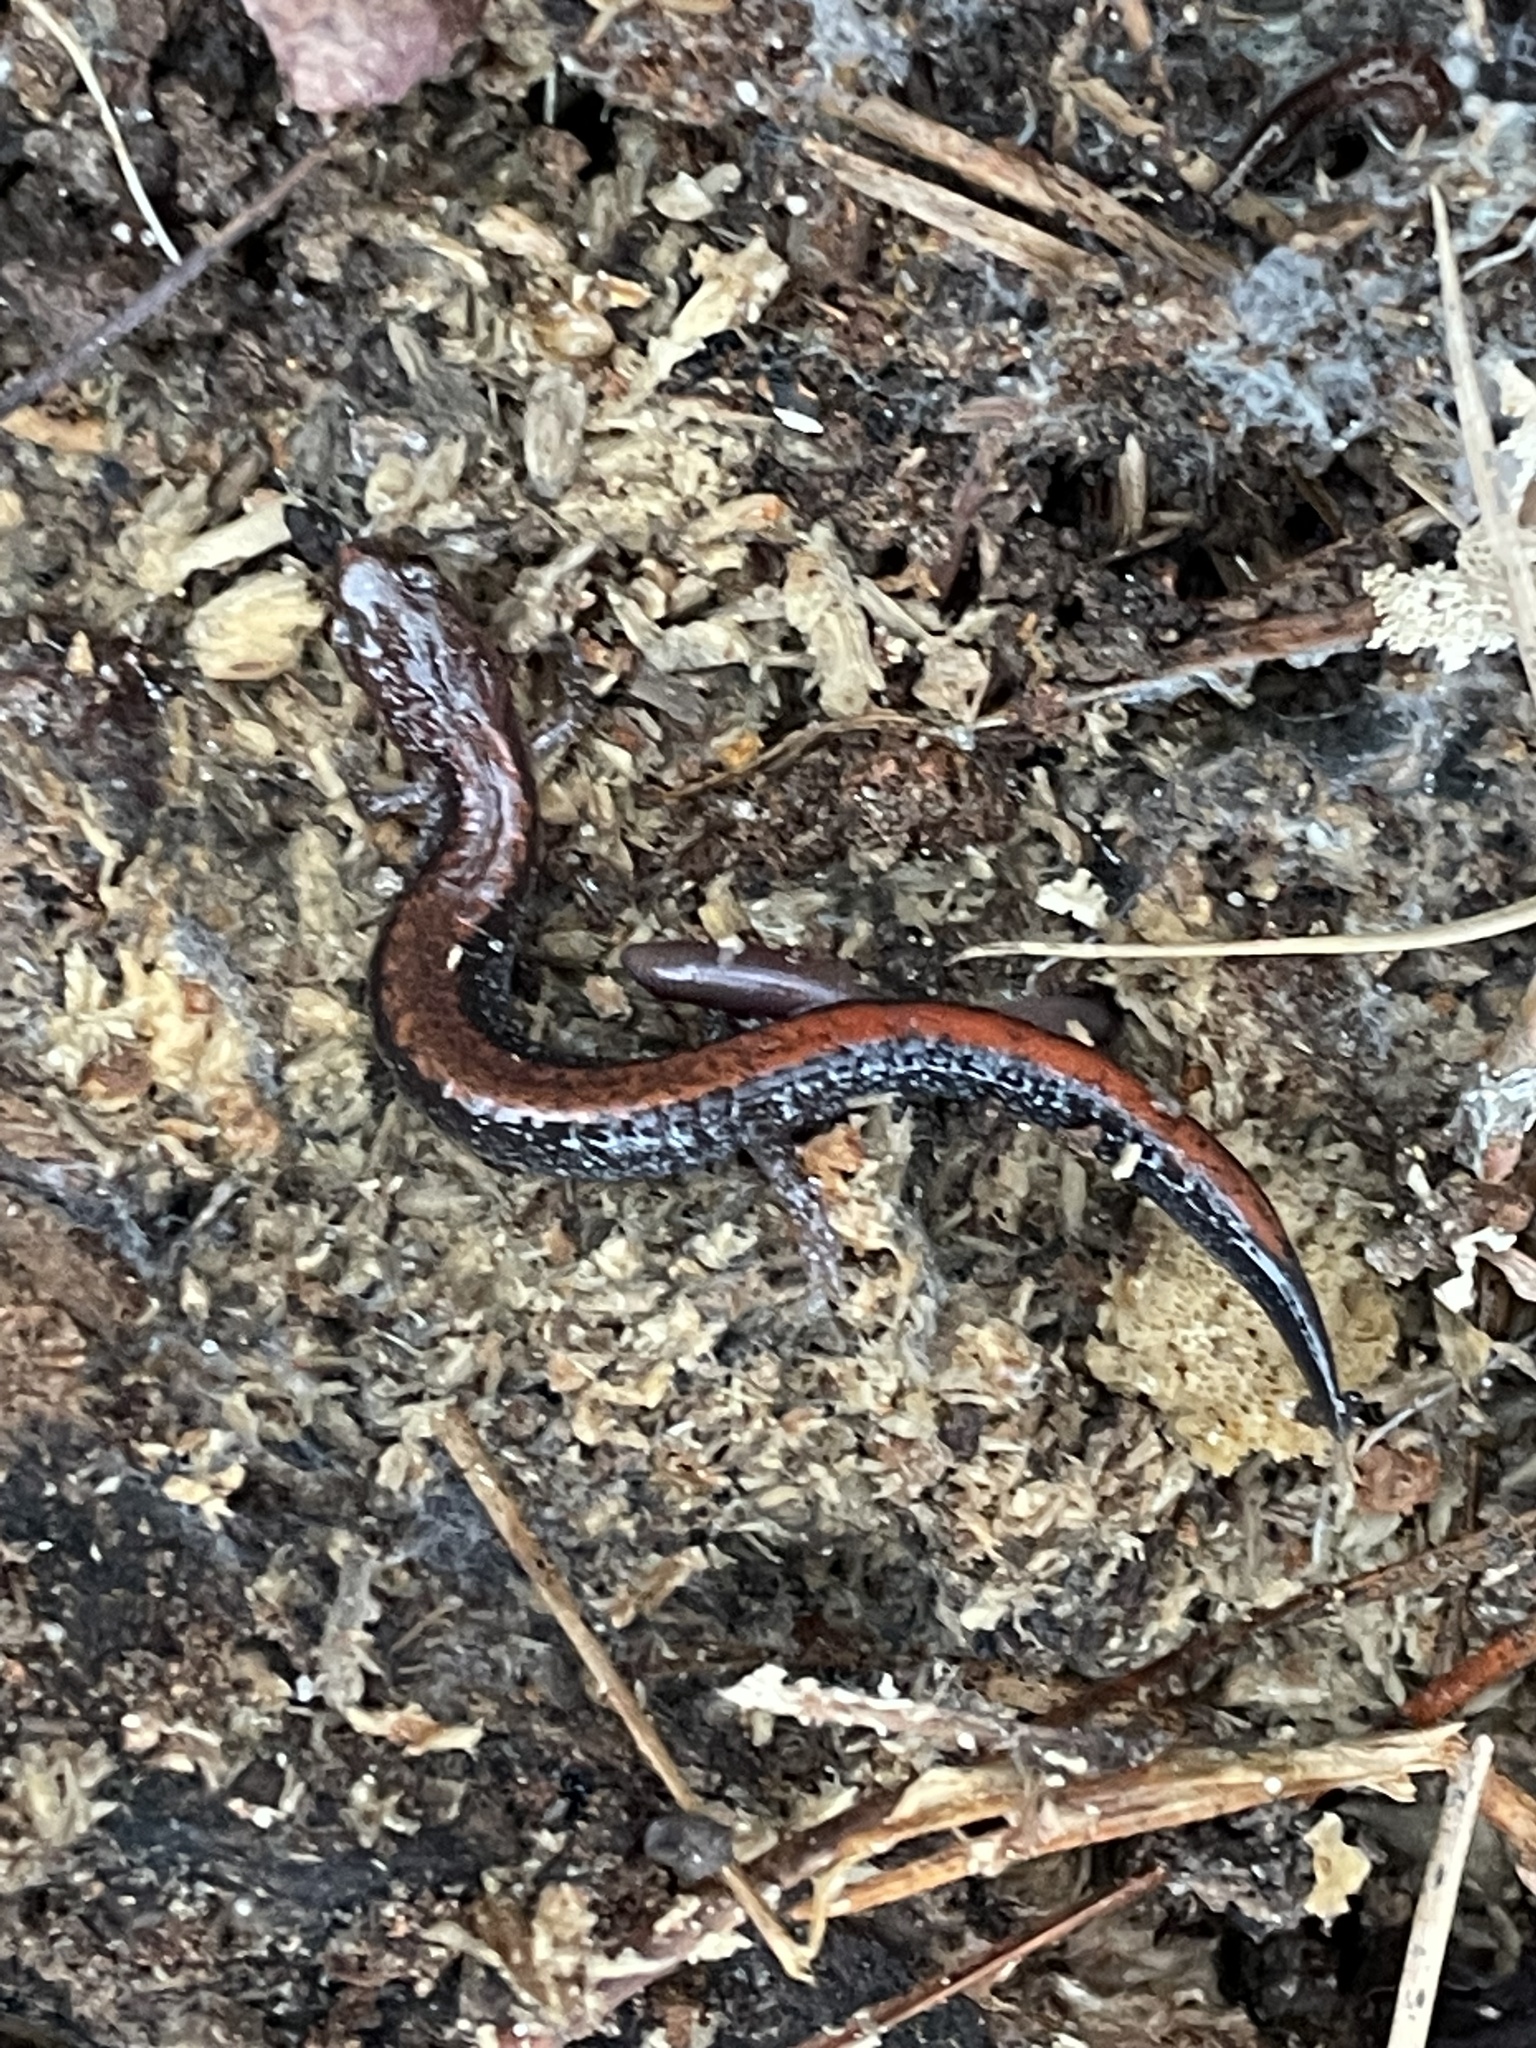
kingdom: Animalia
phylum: Chordata
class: Amphibia
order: Caudata
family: Plethodontidae
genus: Plethodon
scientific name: Plethodon cinereus
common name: Redback salamander
